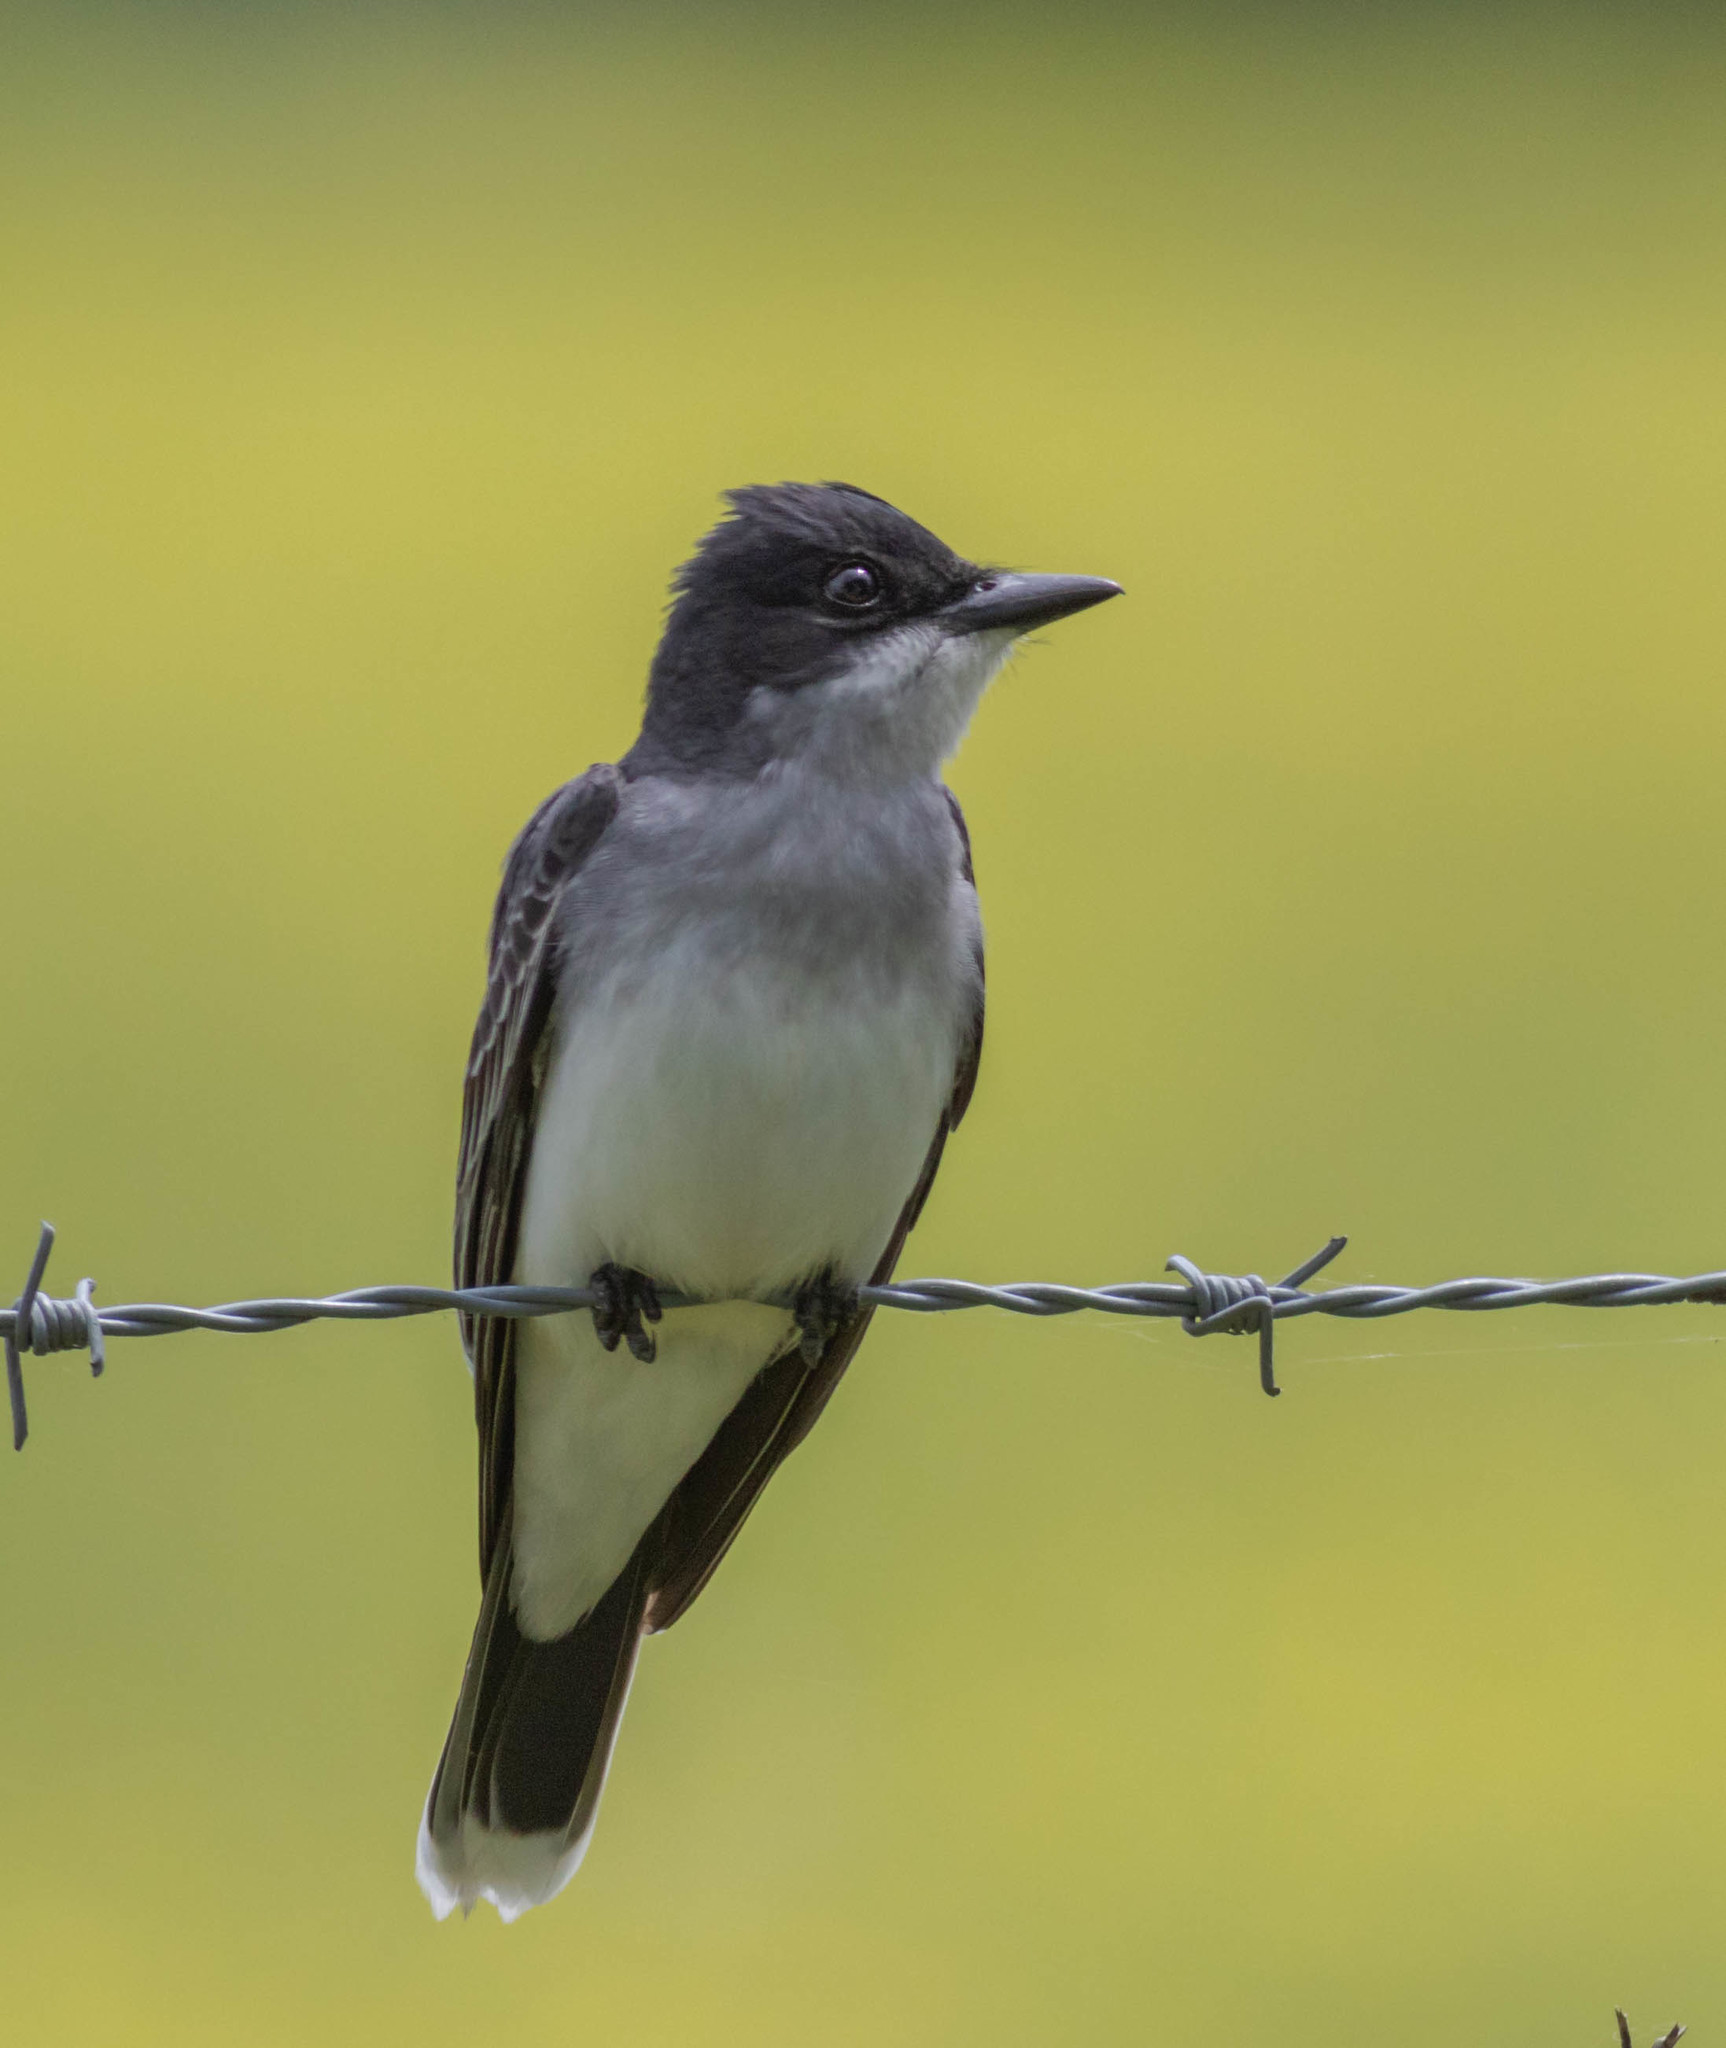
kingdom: Animalia
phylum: Chordata
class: Aves
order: Passeriformes
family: Tyrannidae
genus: Tyrannus
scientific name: Tyrannus tyrannus
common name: Eastern kingbird
